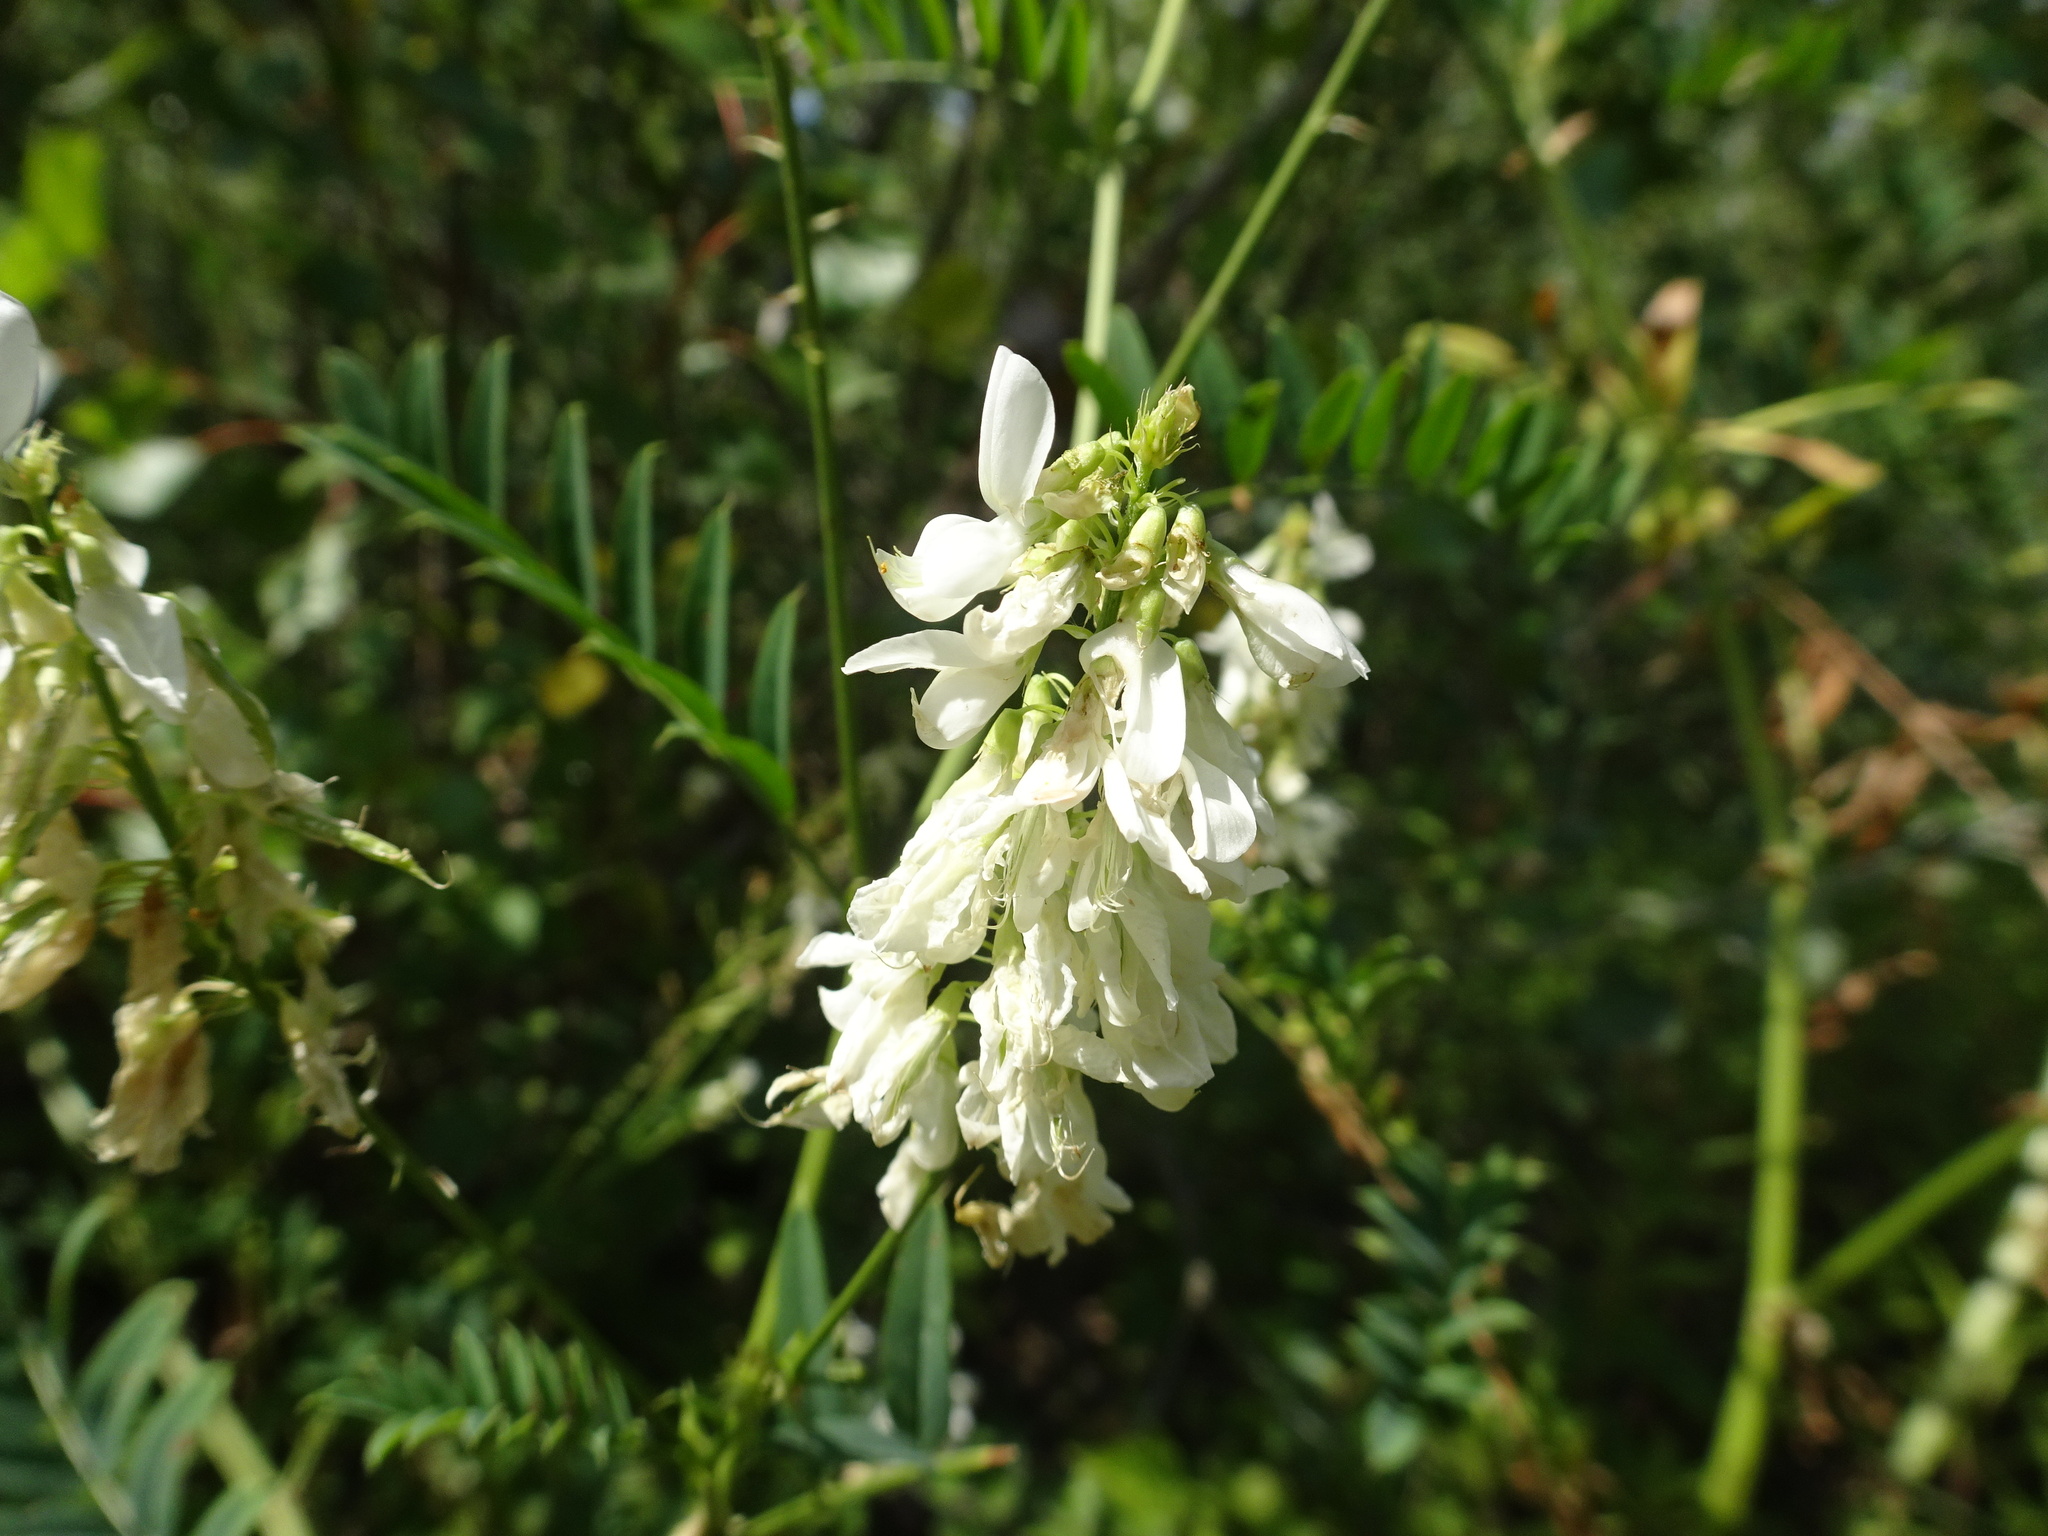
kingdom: Plantae
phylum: Tracheophyta
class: Magnoliopsida
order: Fabales
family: Fabaceae
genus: Galega
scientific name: Galega officinalis
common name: Goat's-rue
